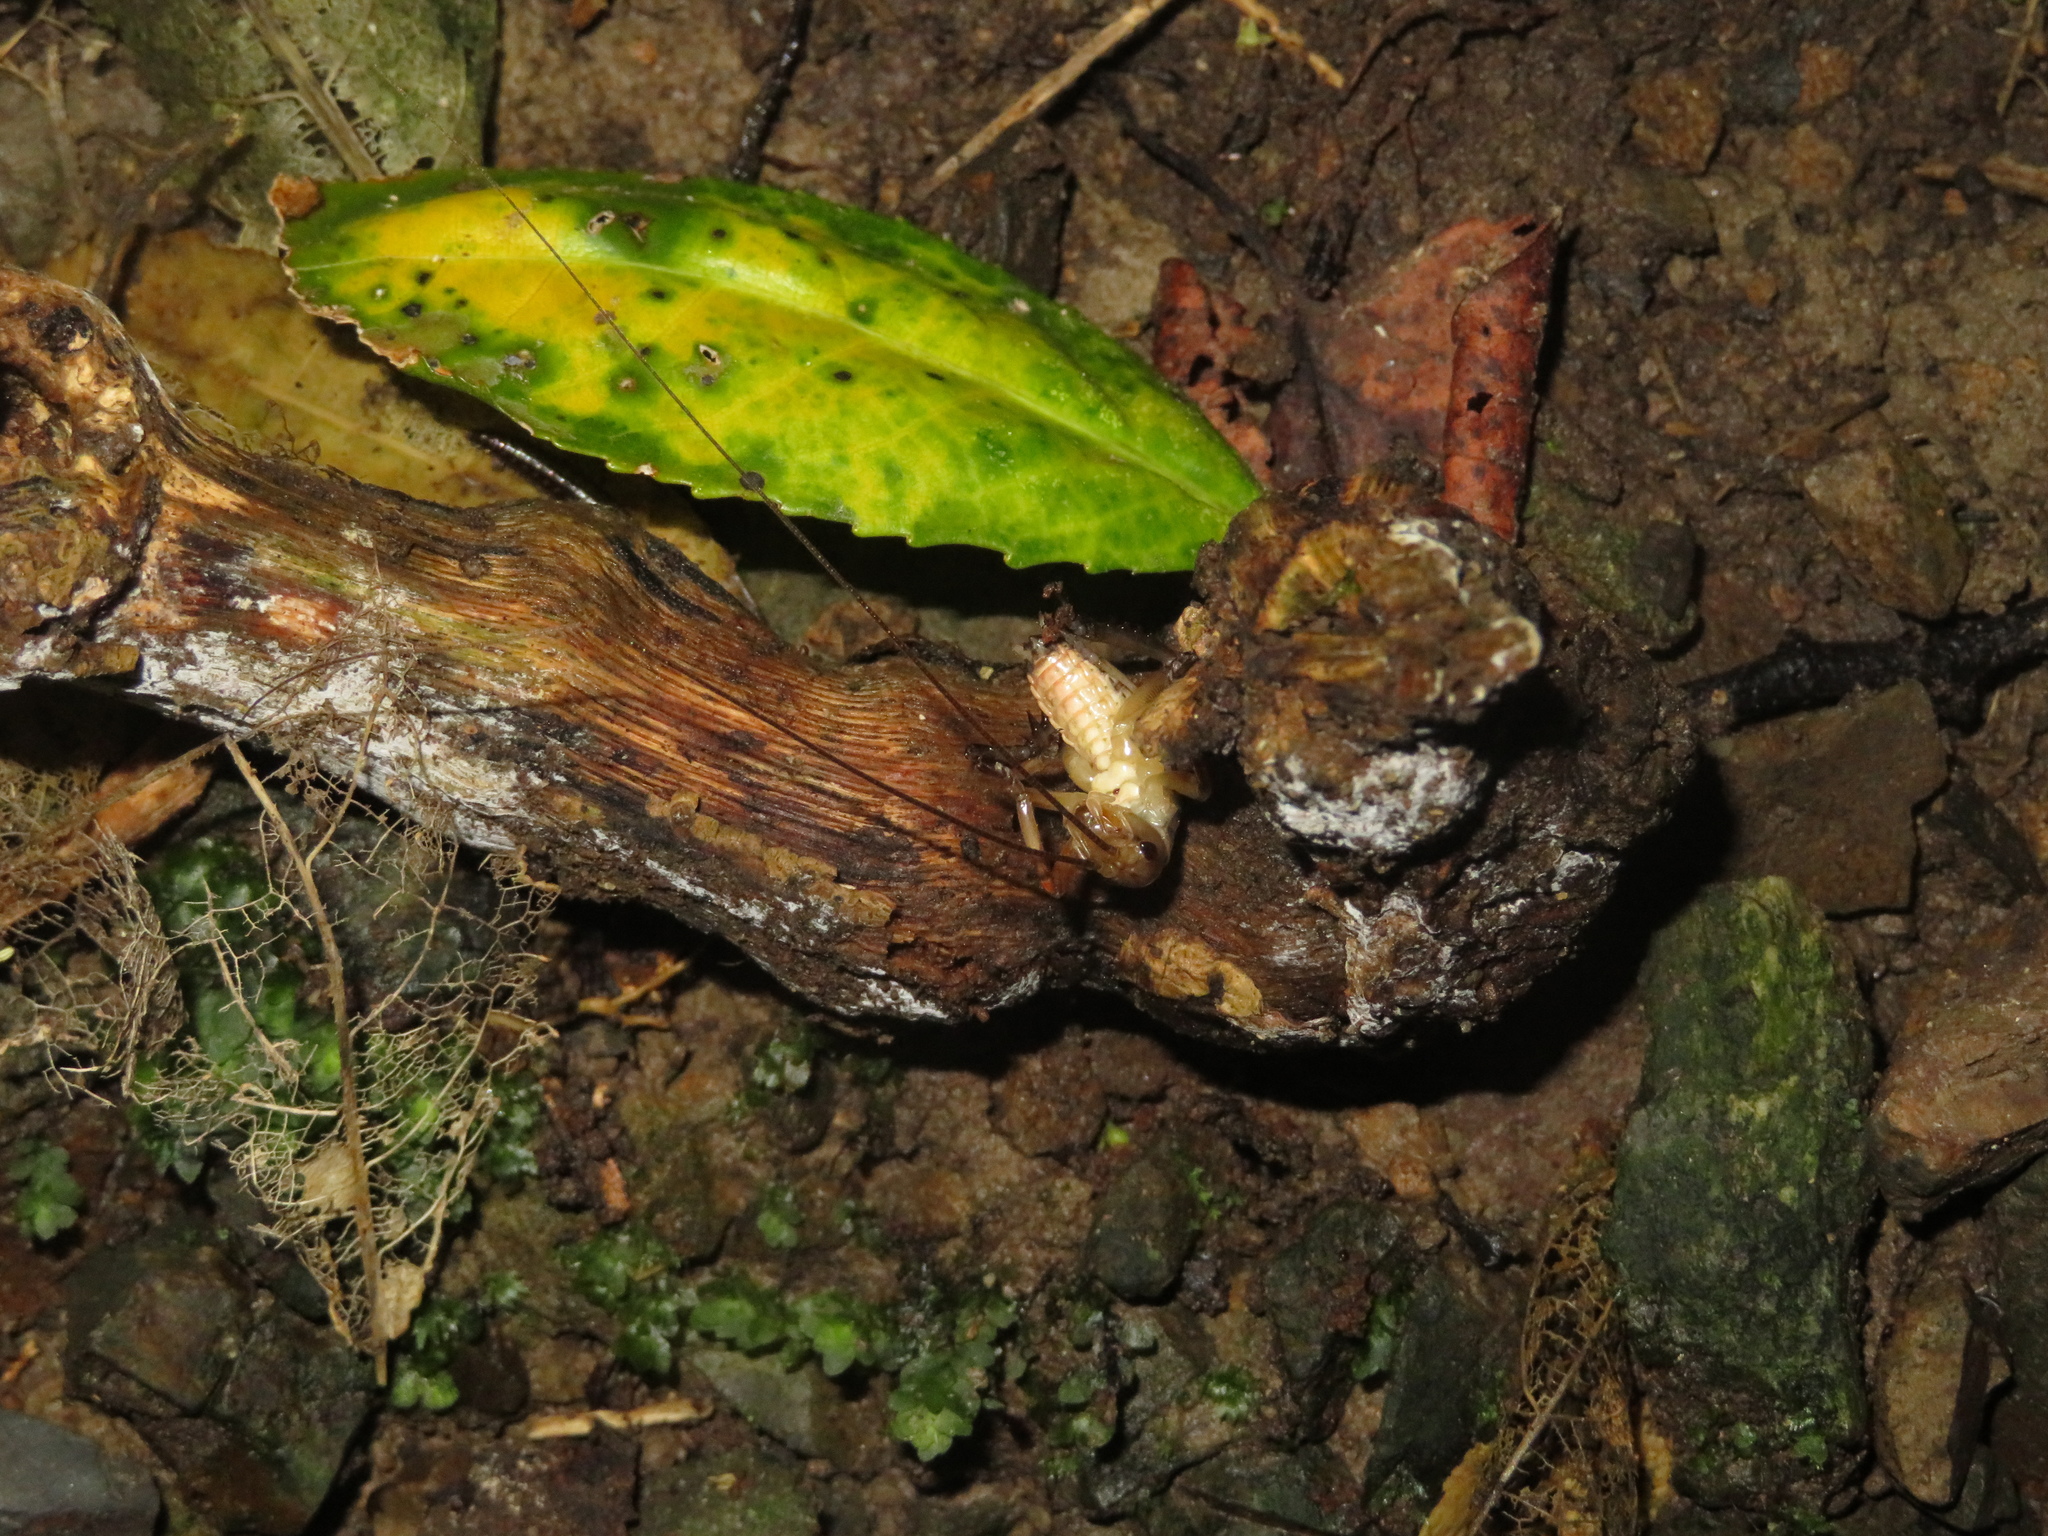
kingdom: Animalia
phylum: Arthropoda
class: Insecta
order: Orthoptera
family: Anostostomatidae
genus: Hemideina
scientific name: Hemideina crassidens
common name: Wellington tree weta
